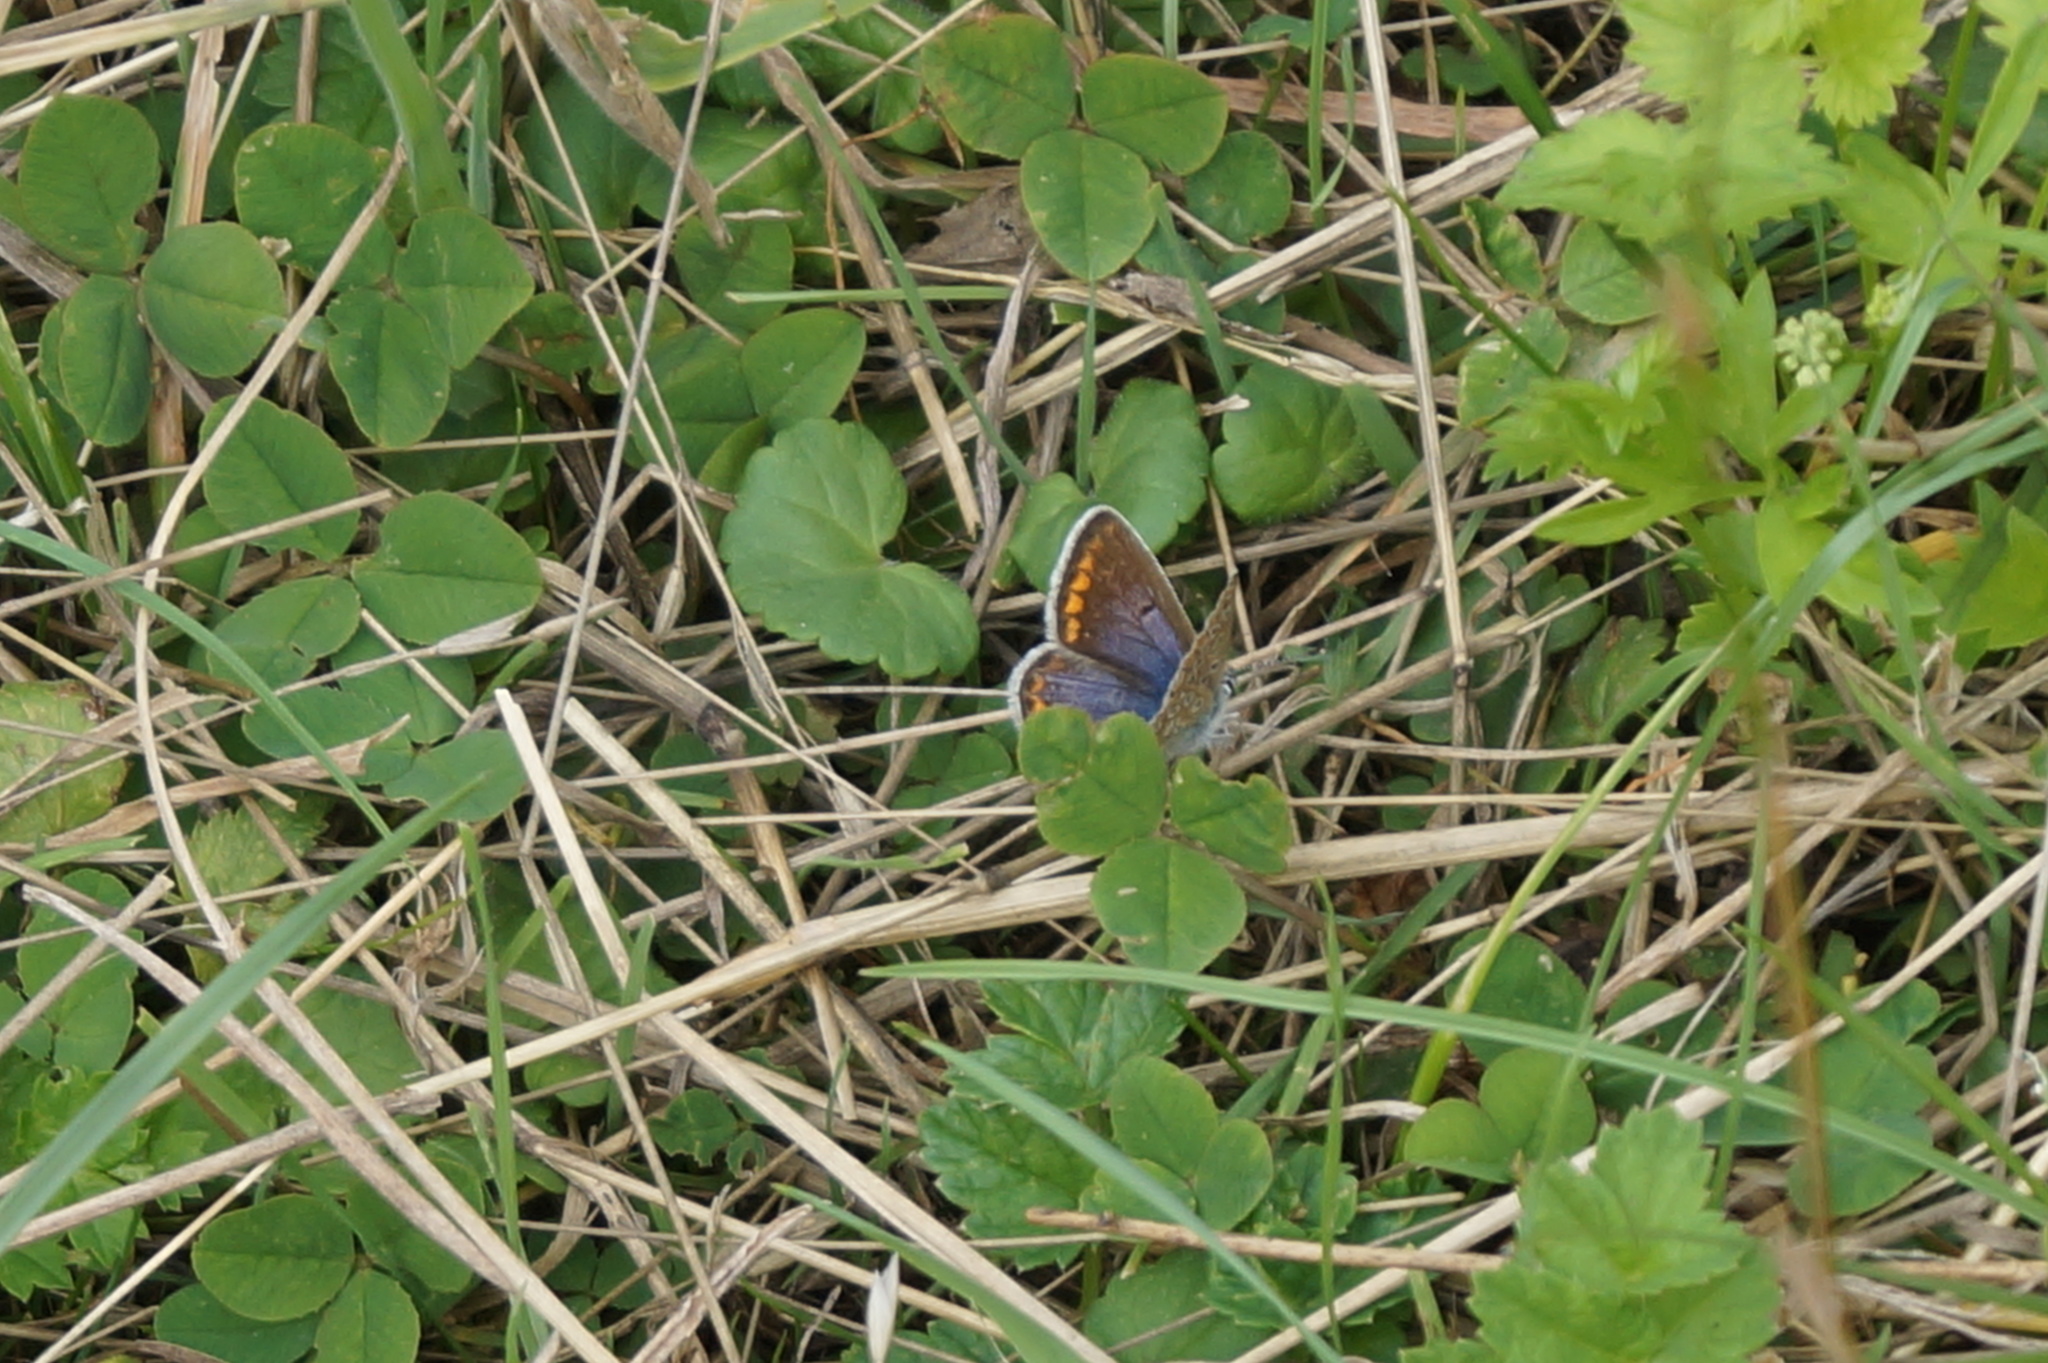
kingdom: Animalia
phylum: Arthropoda
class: Insecta
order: Lepidoptera
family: Lycaenidae
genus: Polyommatus
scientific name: Polyommatus icarus
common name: Common blue
